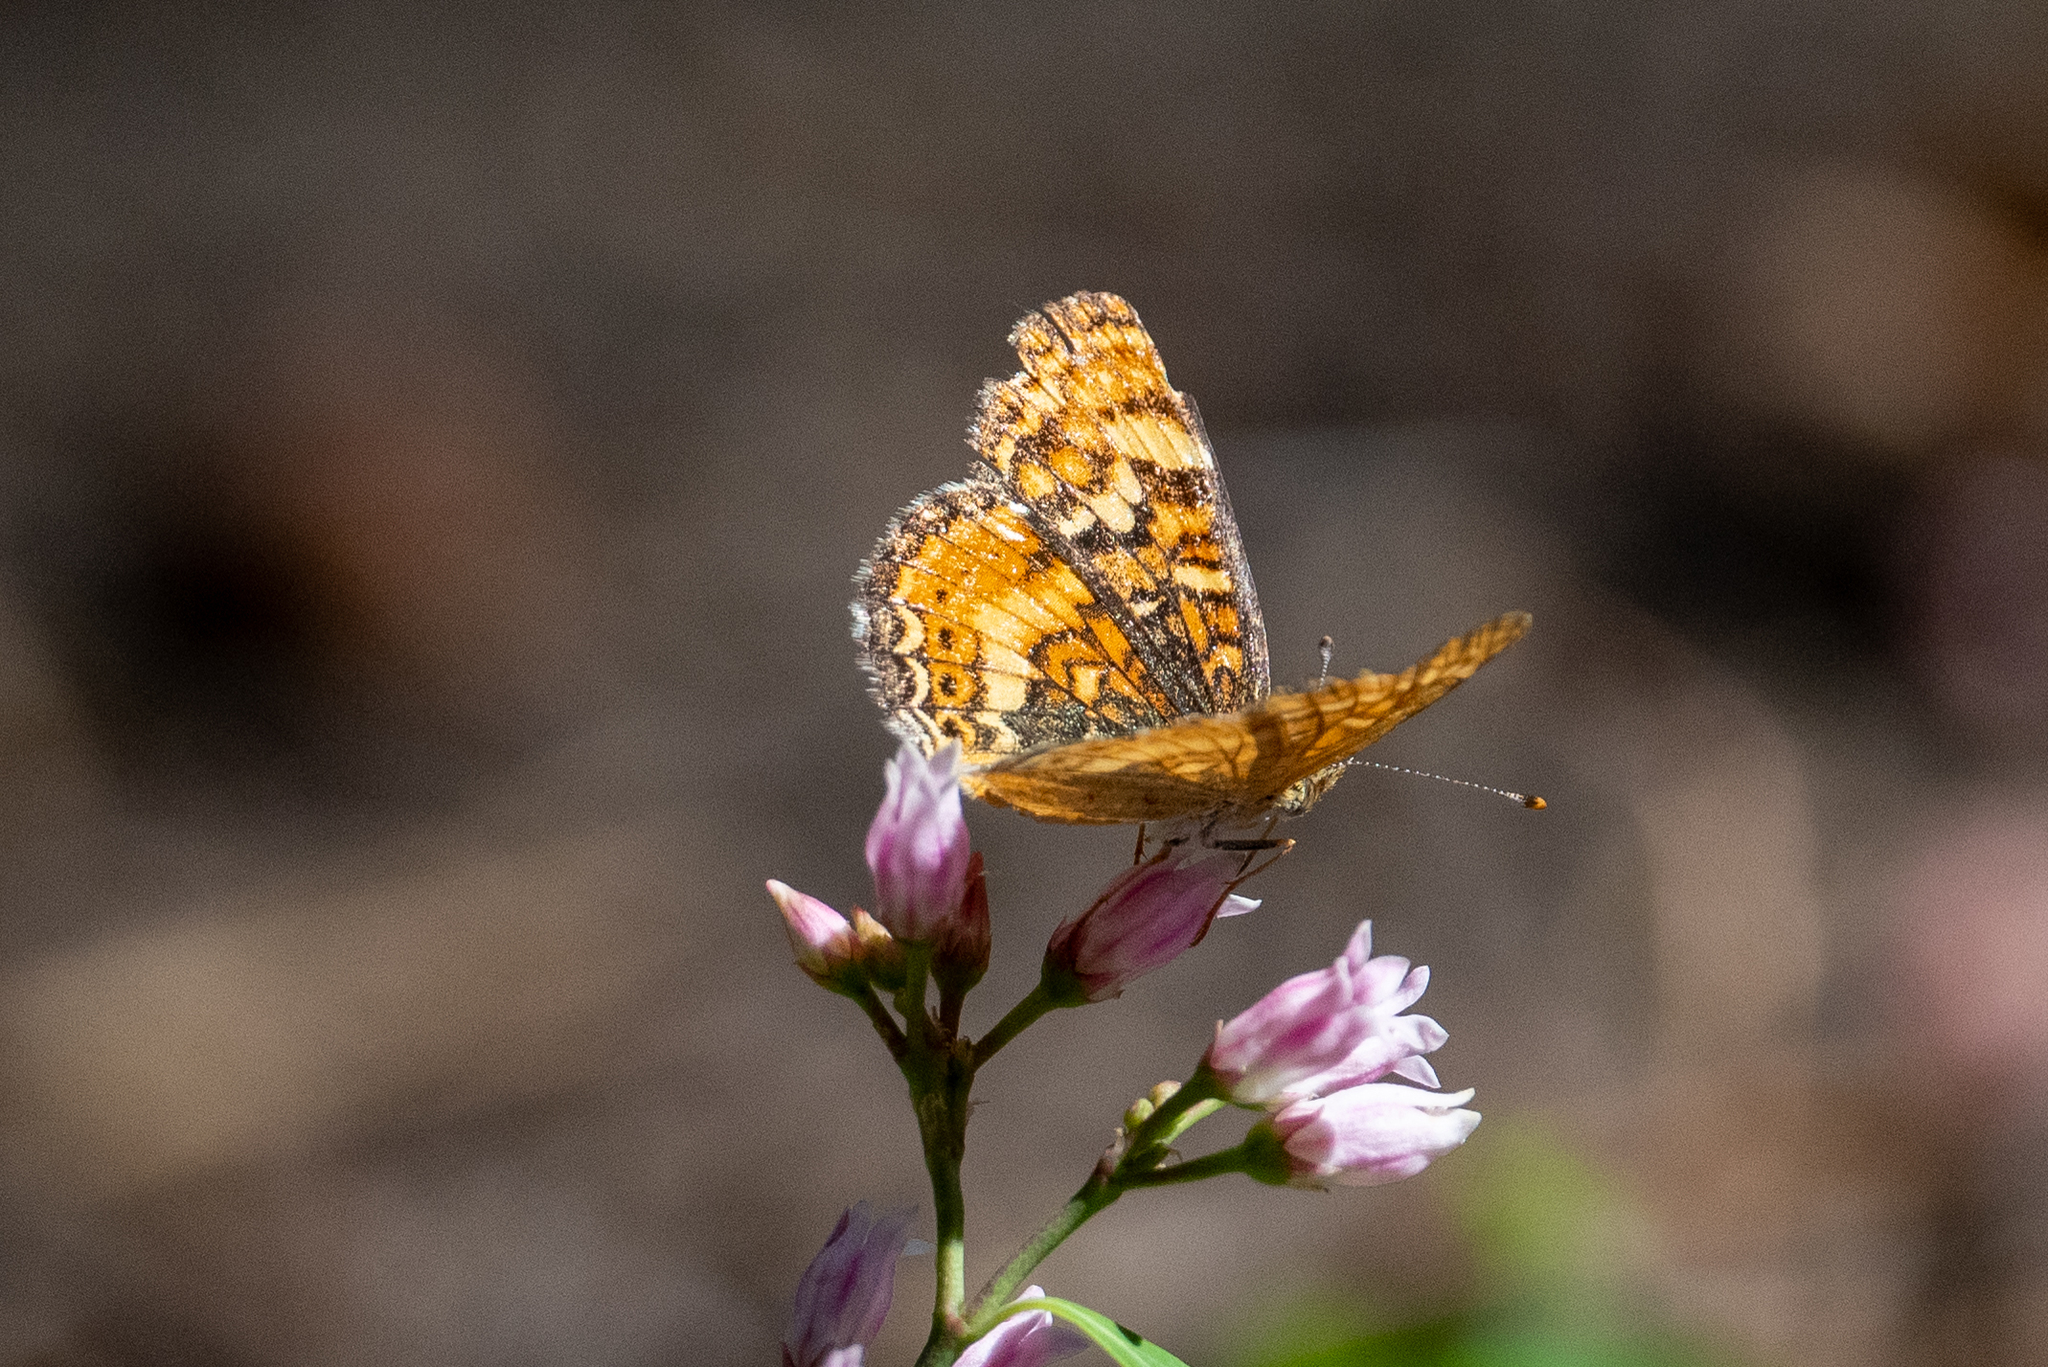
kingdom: Animalia
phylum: Arthropoda
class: Insecta
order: Lepidoptera
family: Nymphalidae
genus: Phyciodes
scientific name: Phyciodes tharos
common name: Pearl crescent
